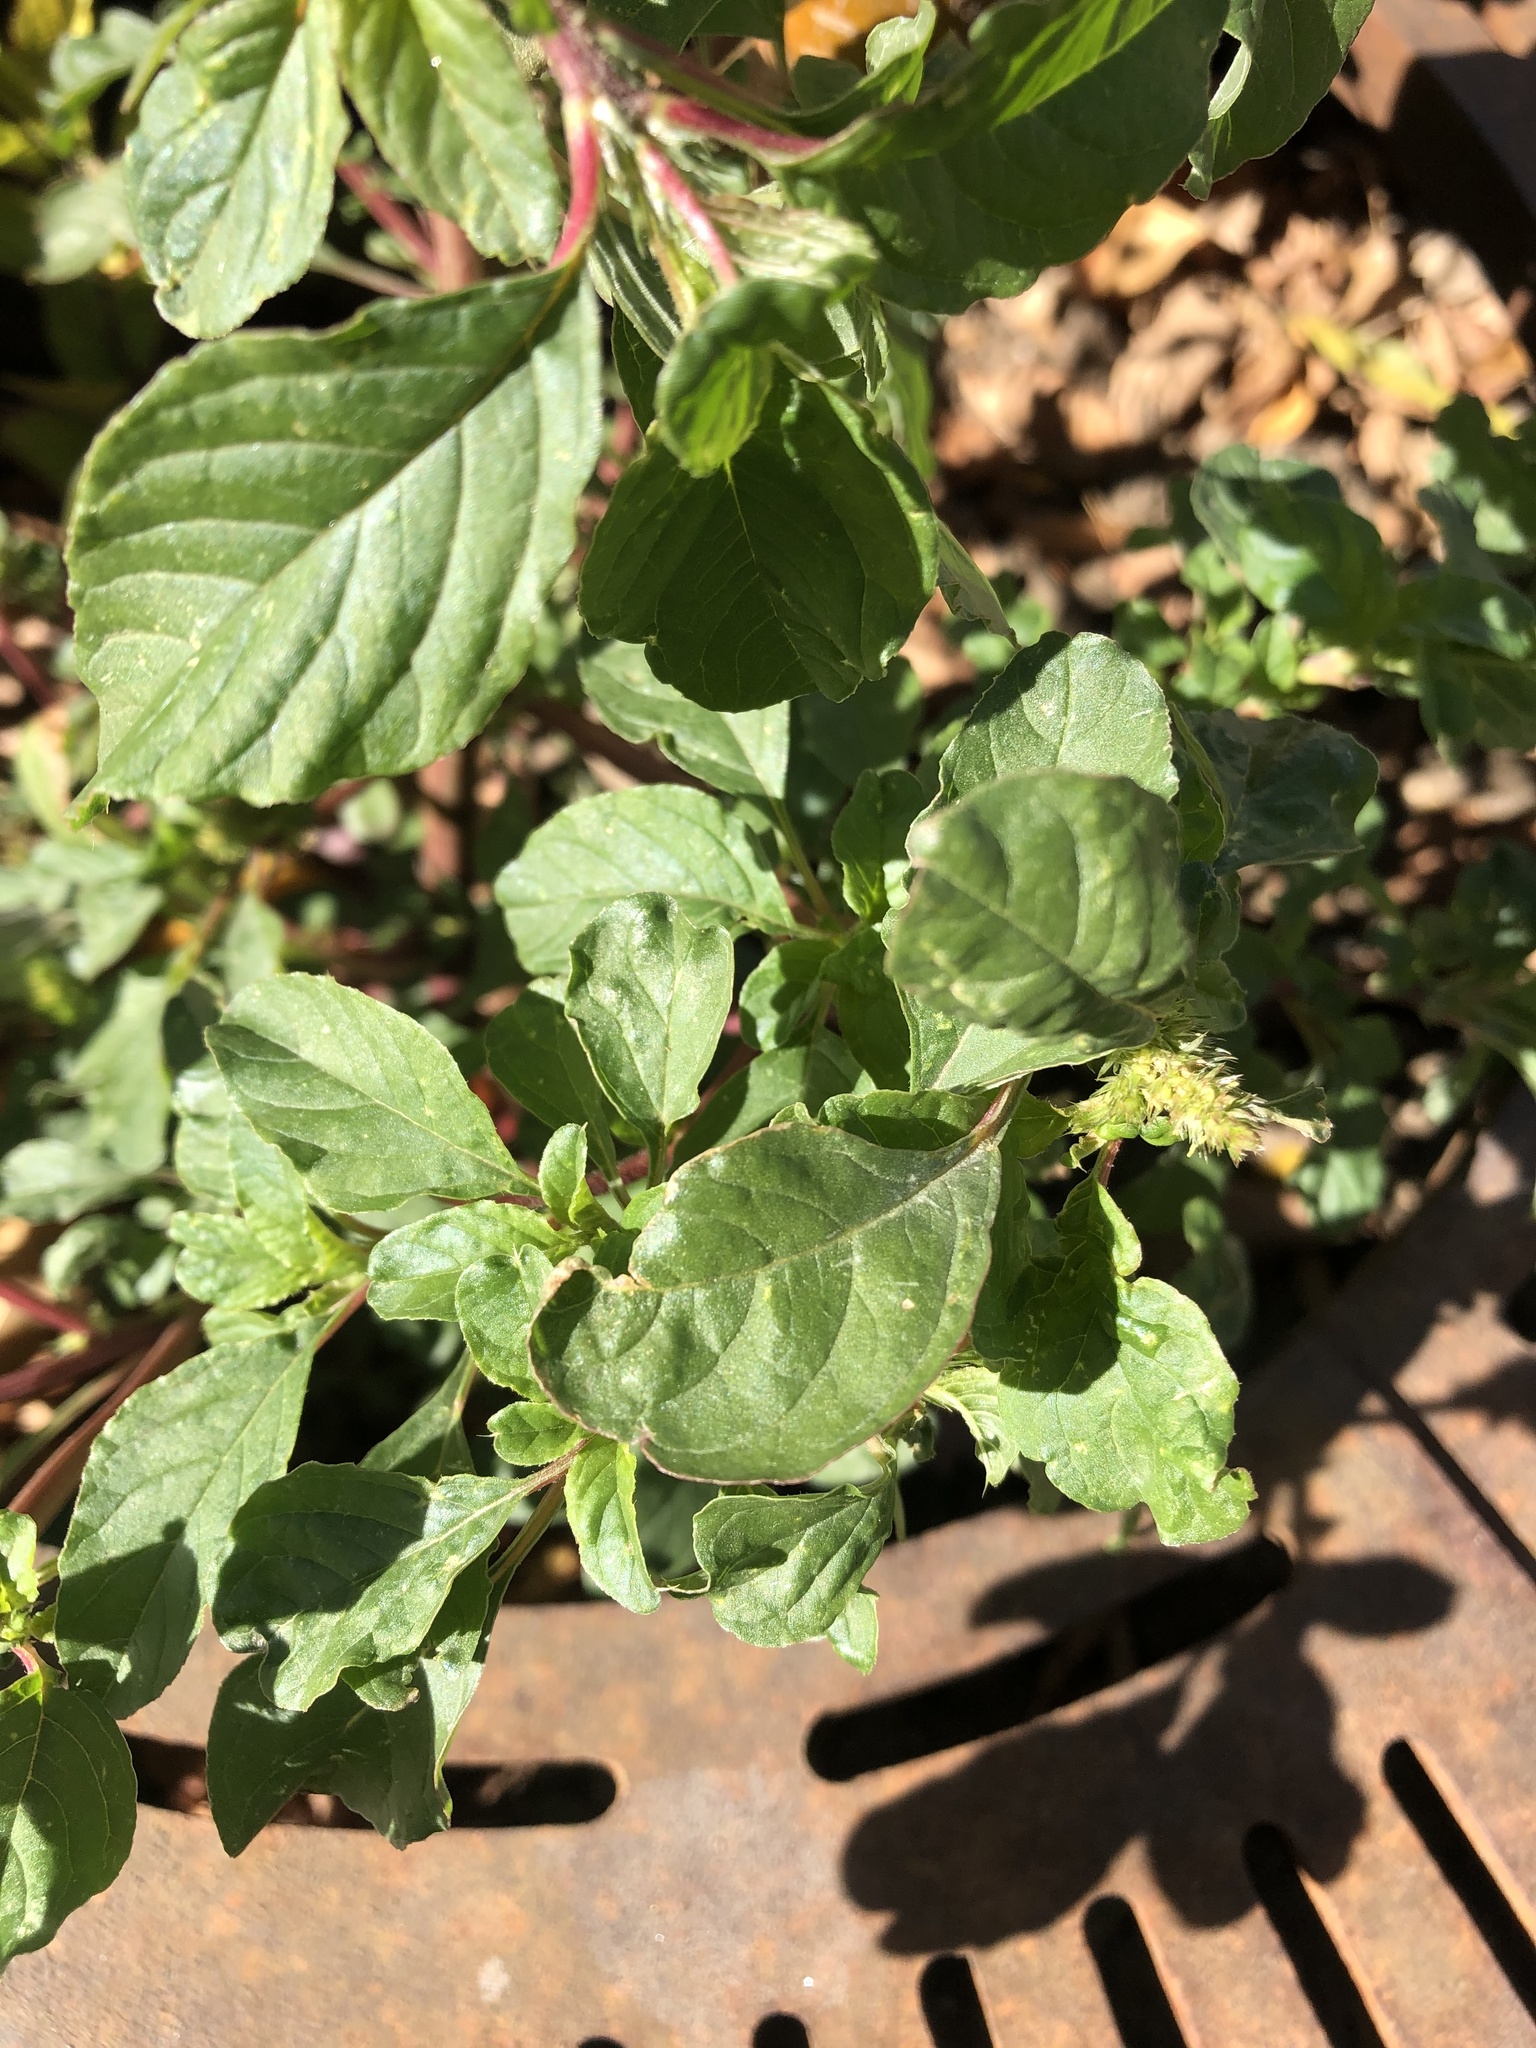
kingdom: Plantae
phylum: Tracheophyta
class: Magnoliopsida
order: Caryophyllales
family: Amaranthaceae
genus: Amaranthus
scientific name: Amaranthus retroflexus
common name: Redroot amaranth
